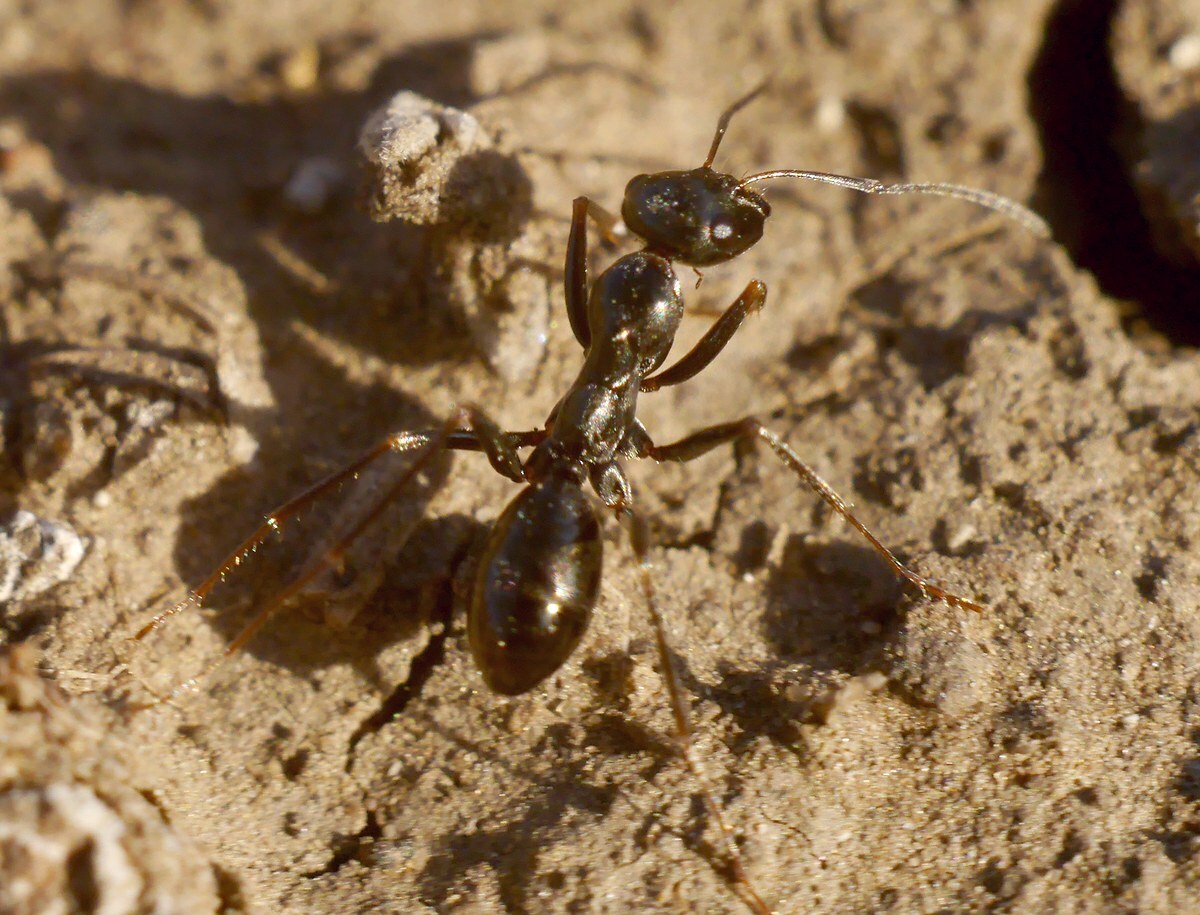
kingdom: Animalia
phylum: Arthropoda
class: Insecta
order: Hymenoptera
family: Formicidae
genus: Cataglyphis
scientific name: Cataglyphis aenescens
